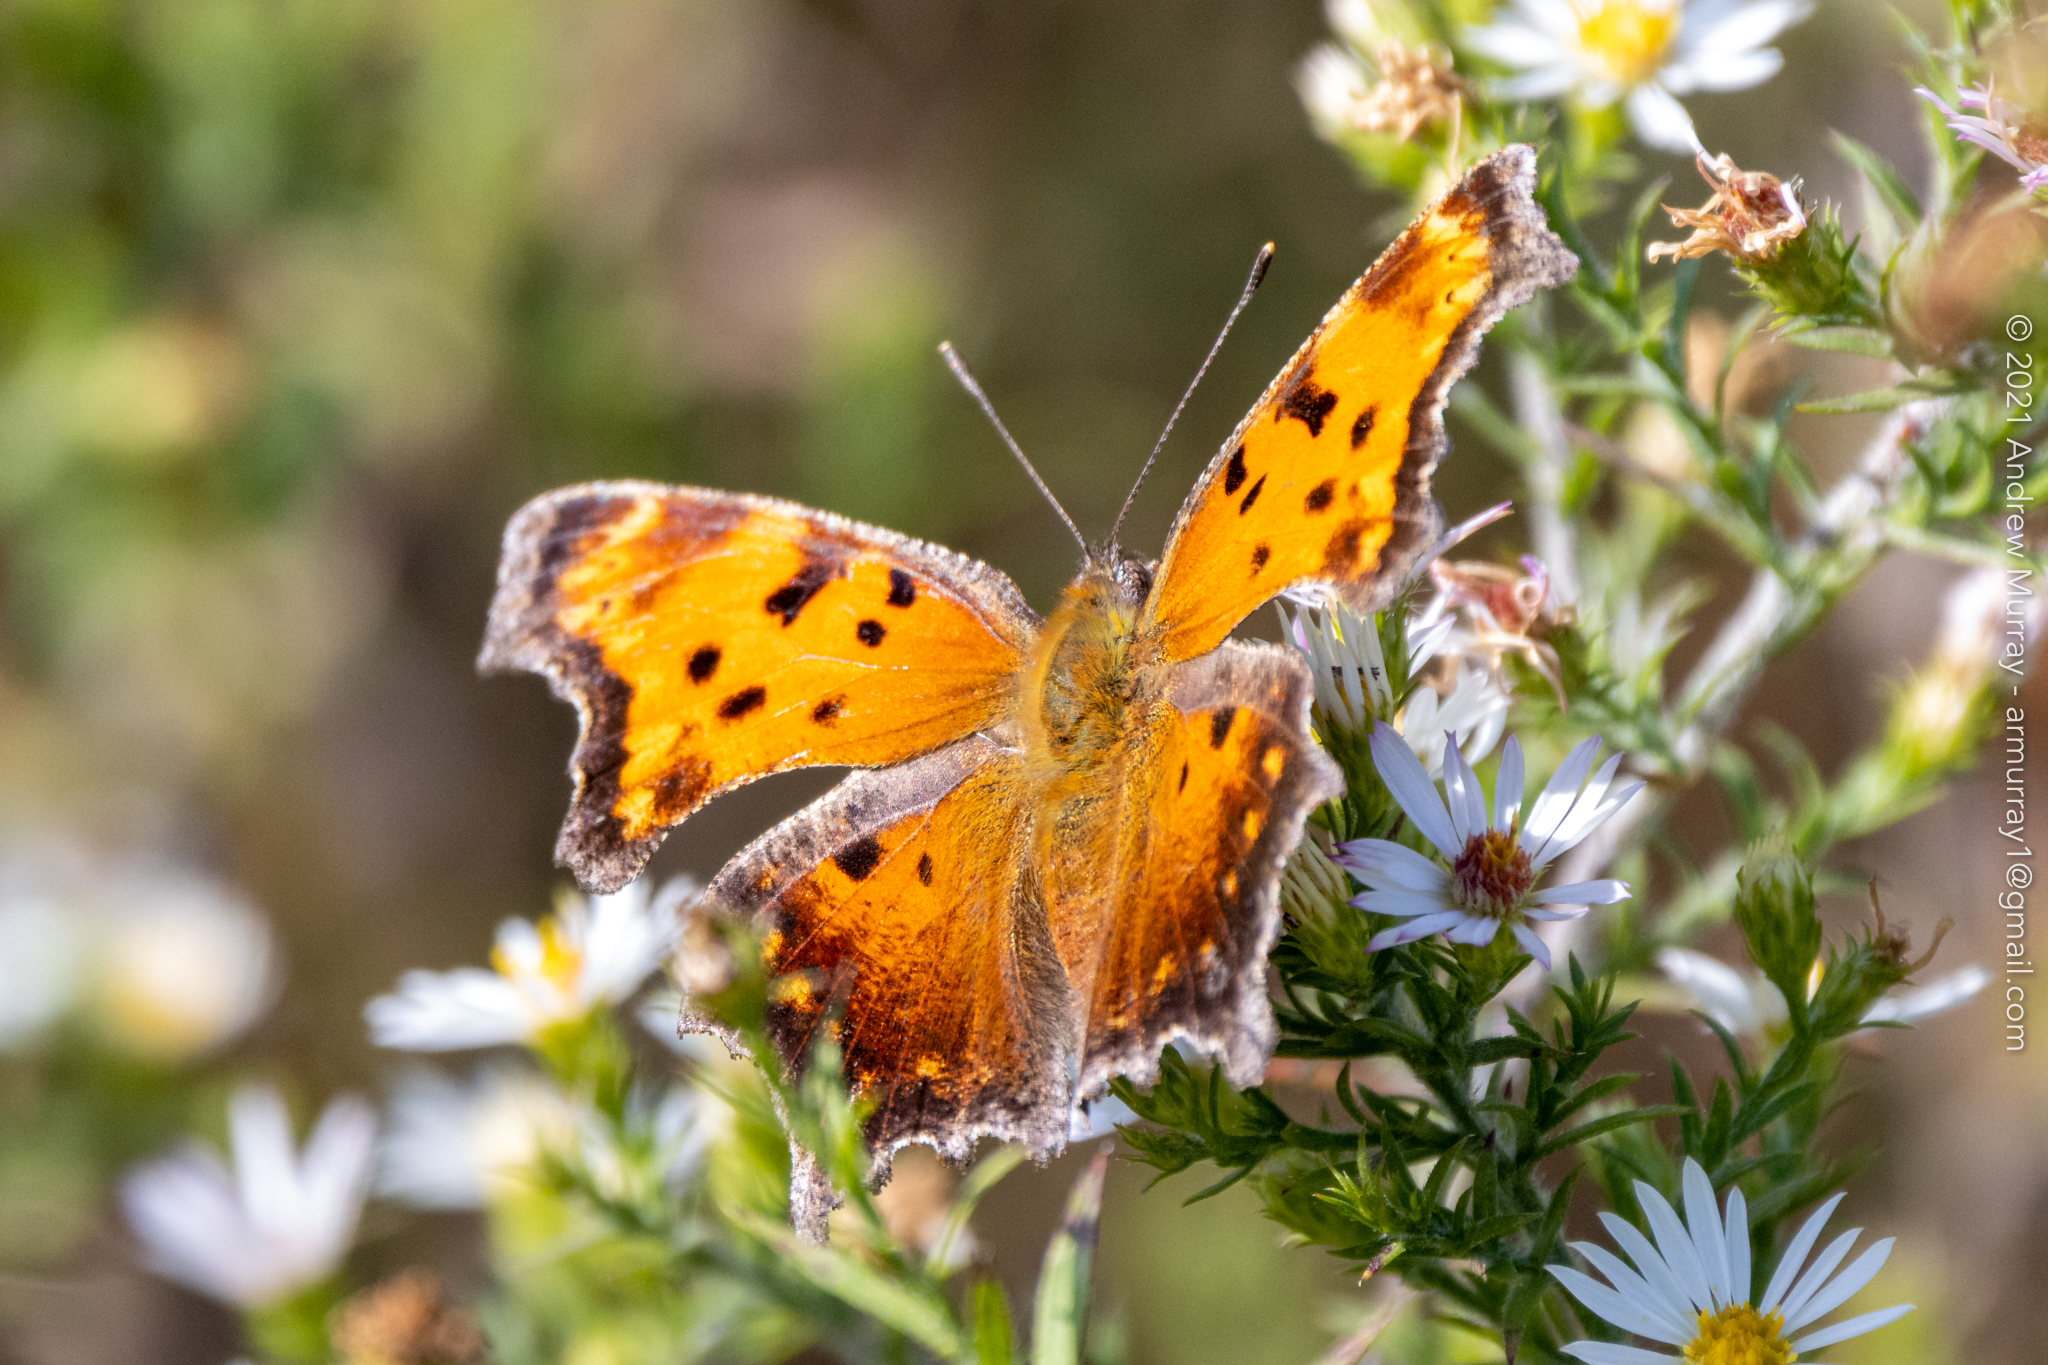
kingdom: Animalia
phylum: Arthropoda
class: Insecta
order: Lepidoptera
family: Nymphalidae
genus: Polygonia
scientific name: Polygonia progne
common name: Gray comma
